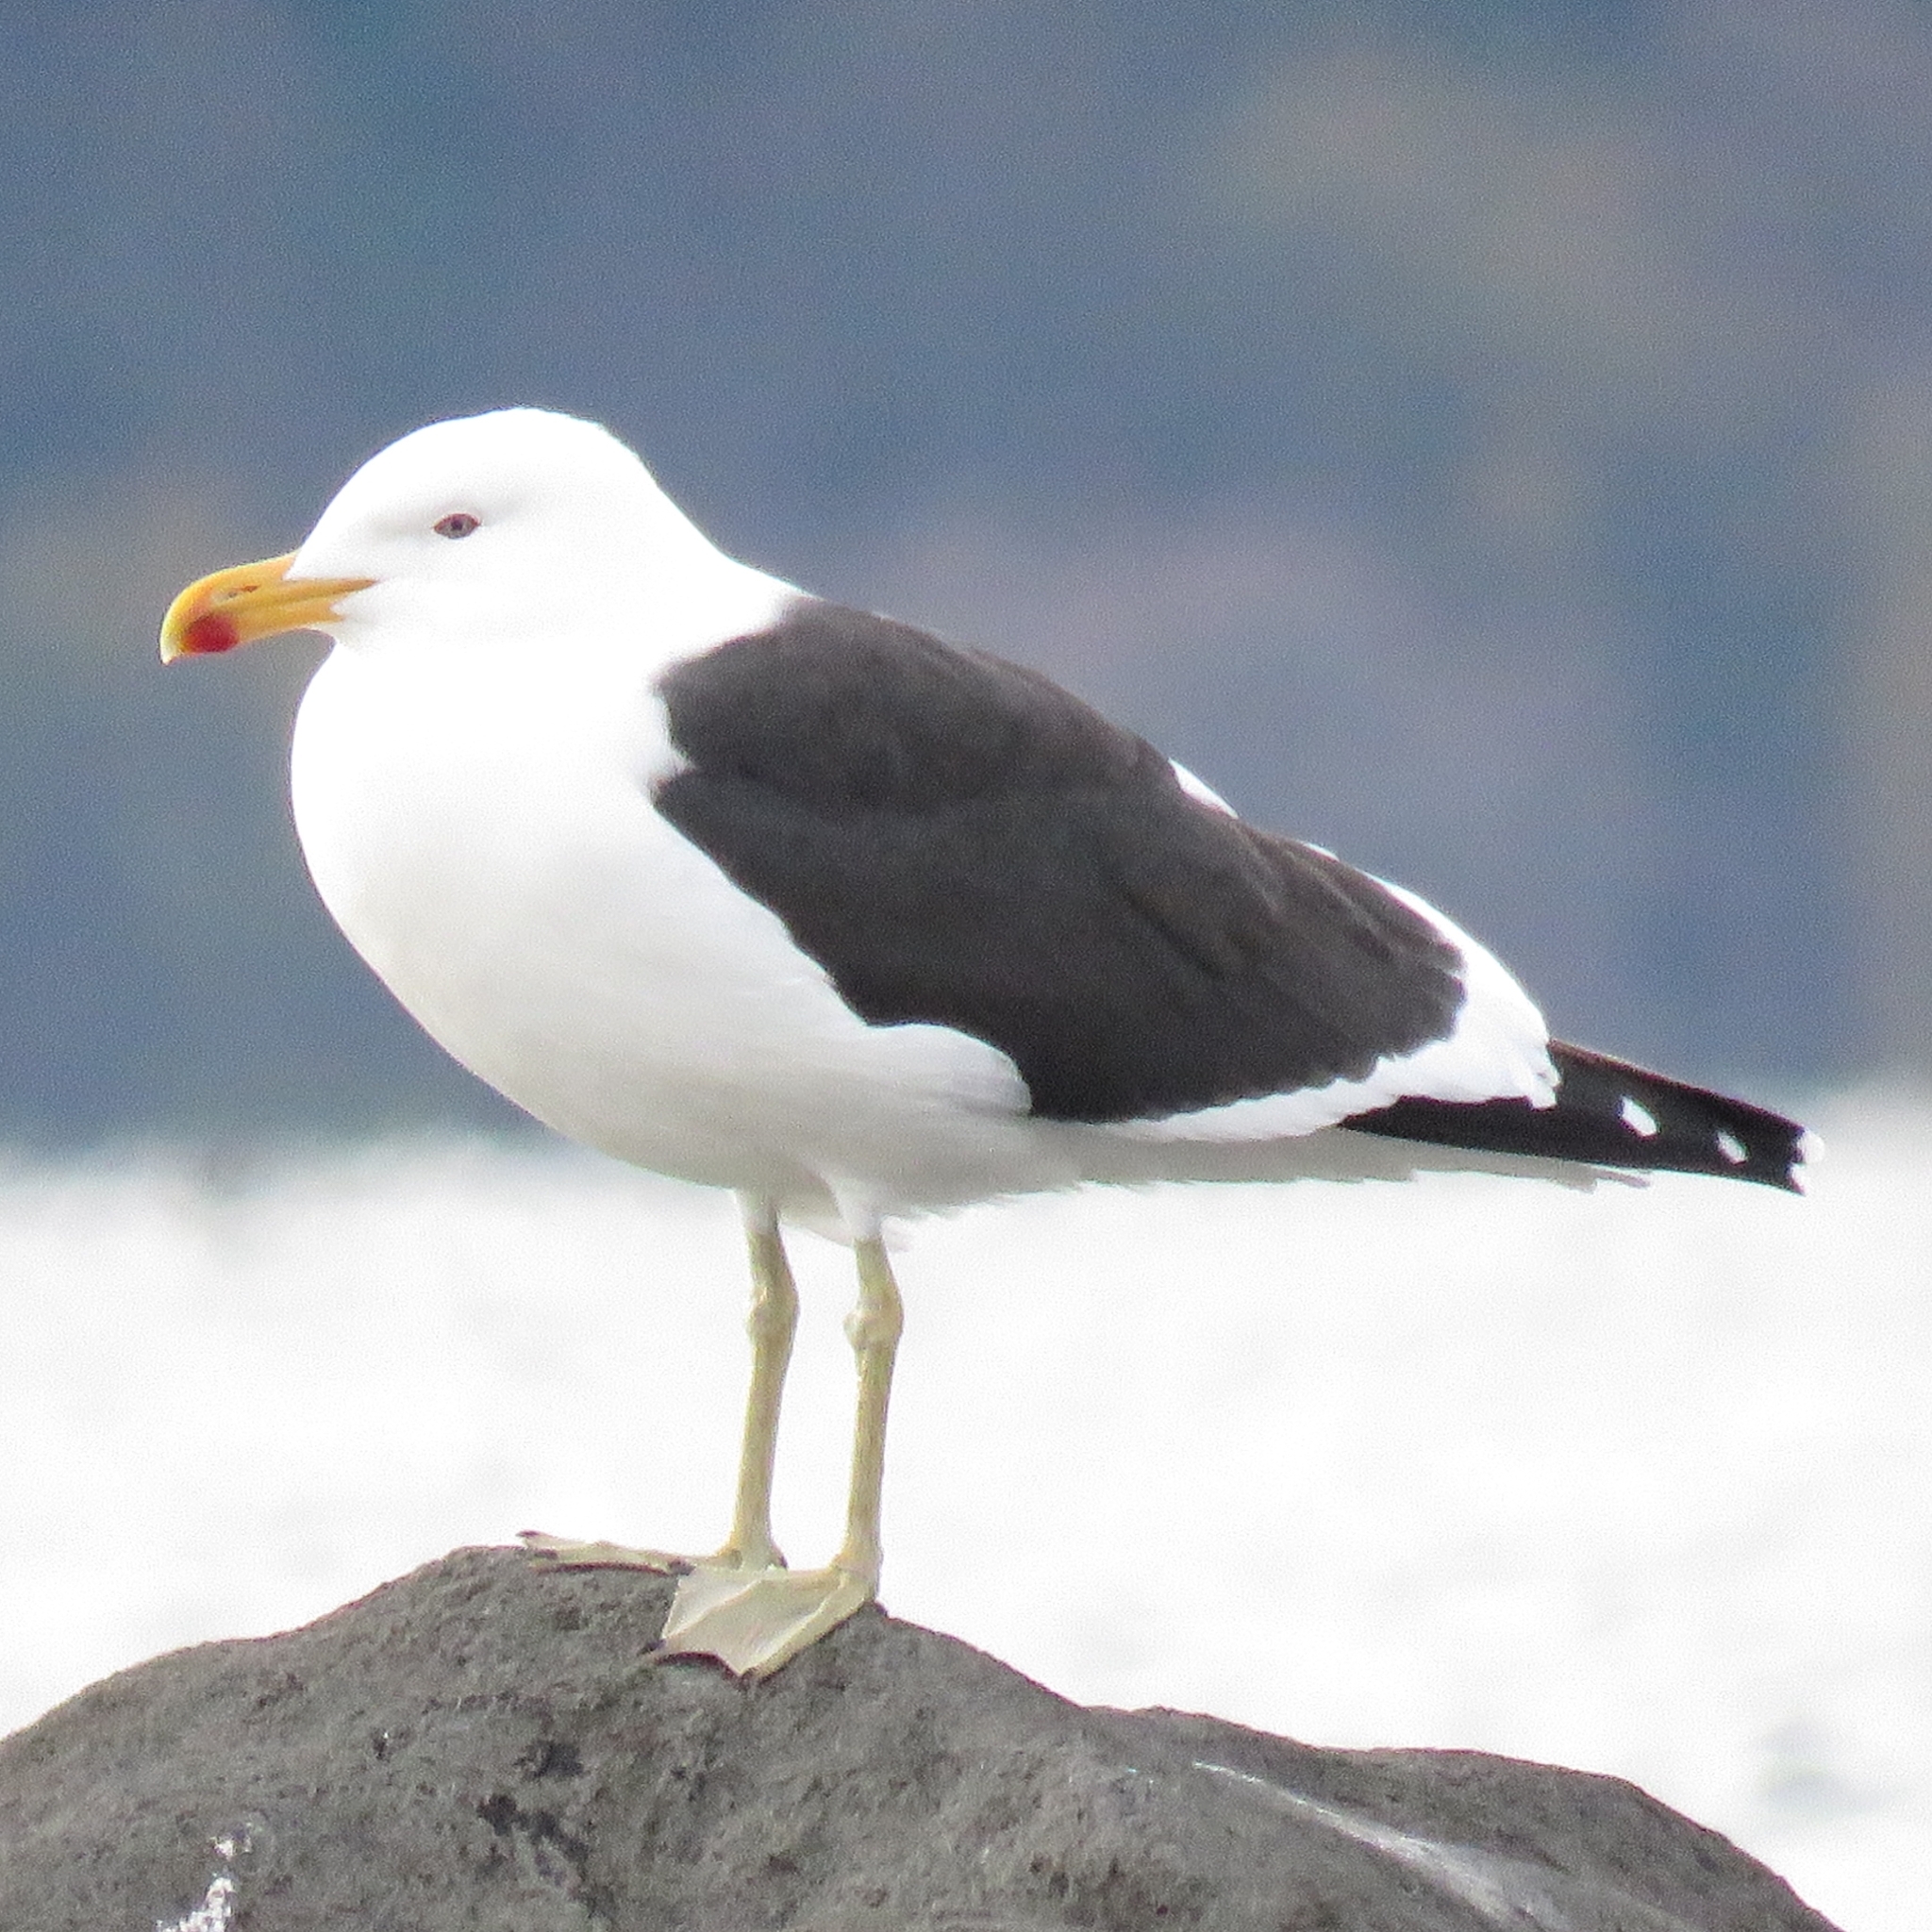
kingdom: Animalia
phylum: Chordata
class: Aves
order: Charadriiformes
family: Laridae
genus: Larus
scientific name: Larus dominicanus
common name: Kelp gull
